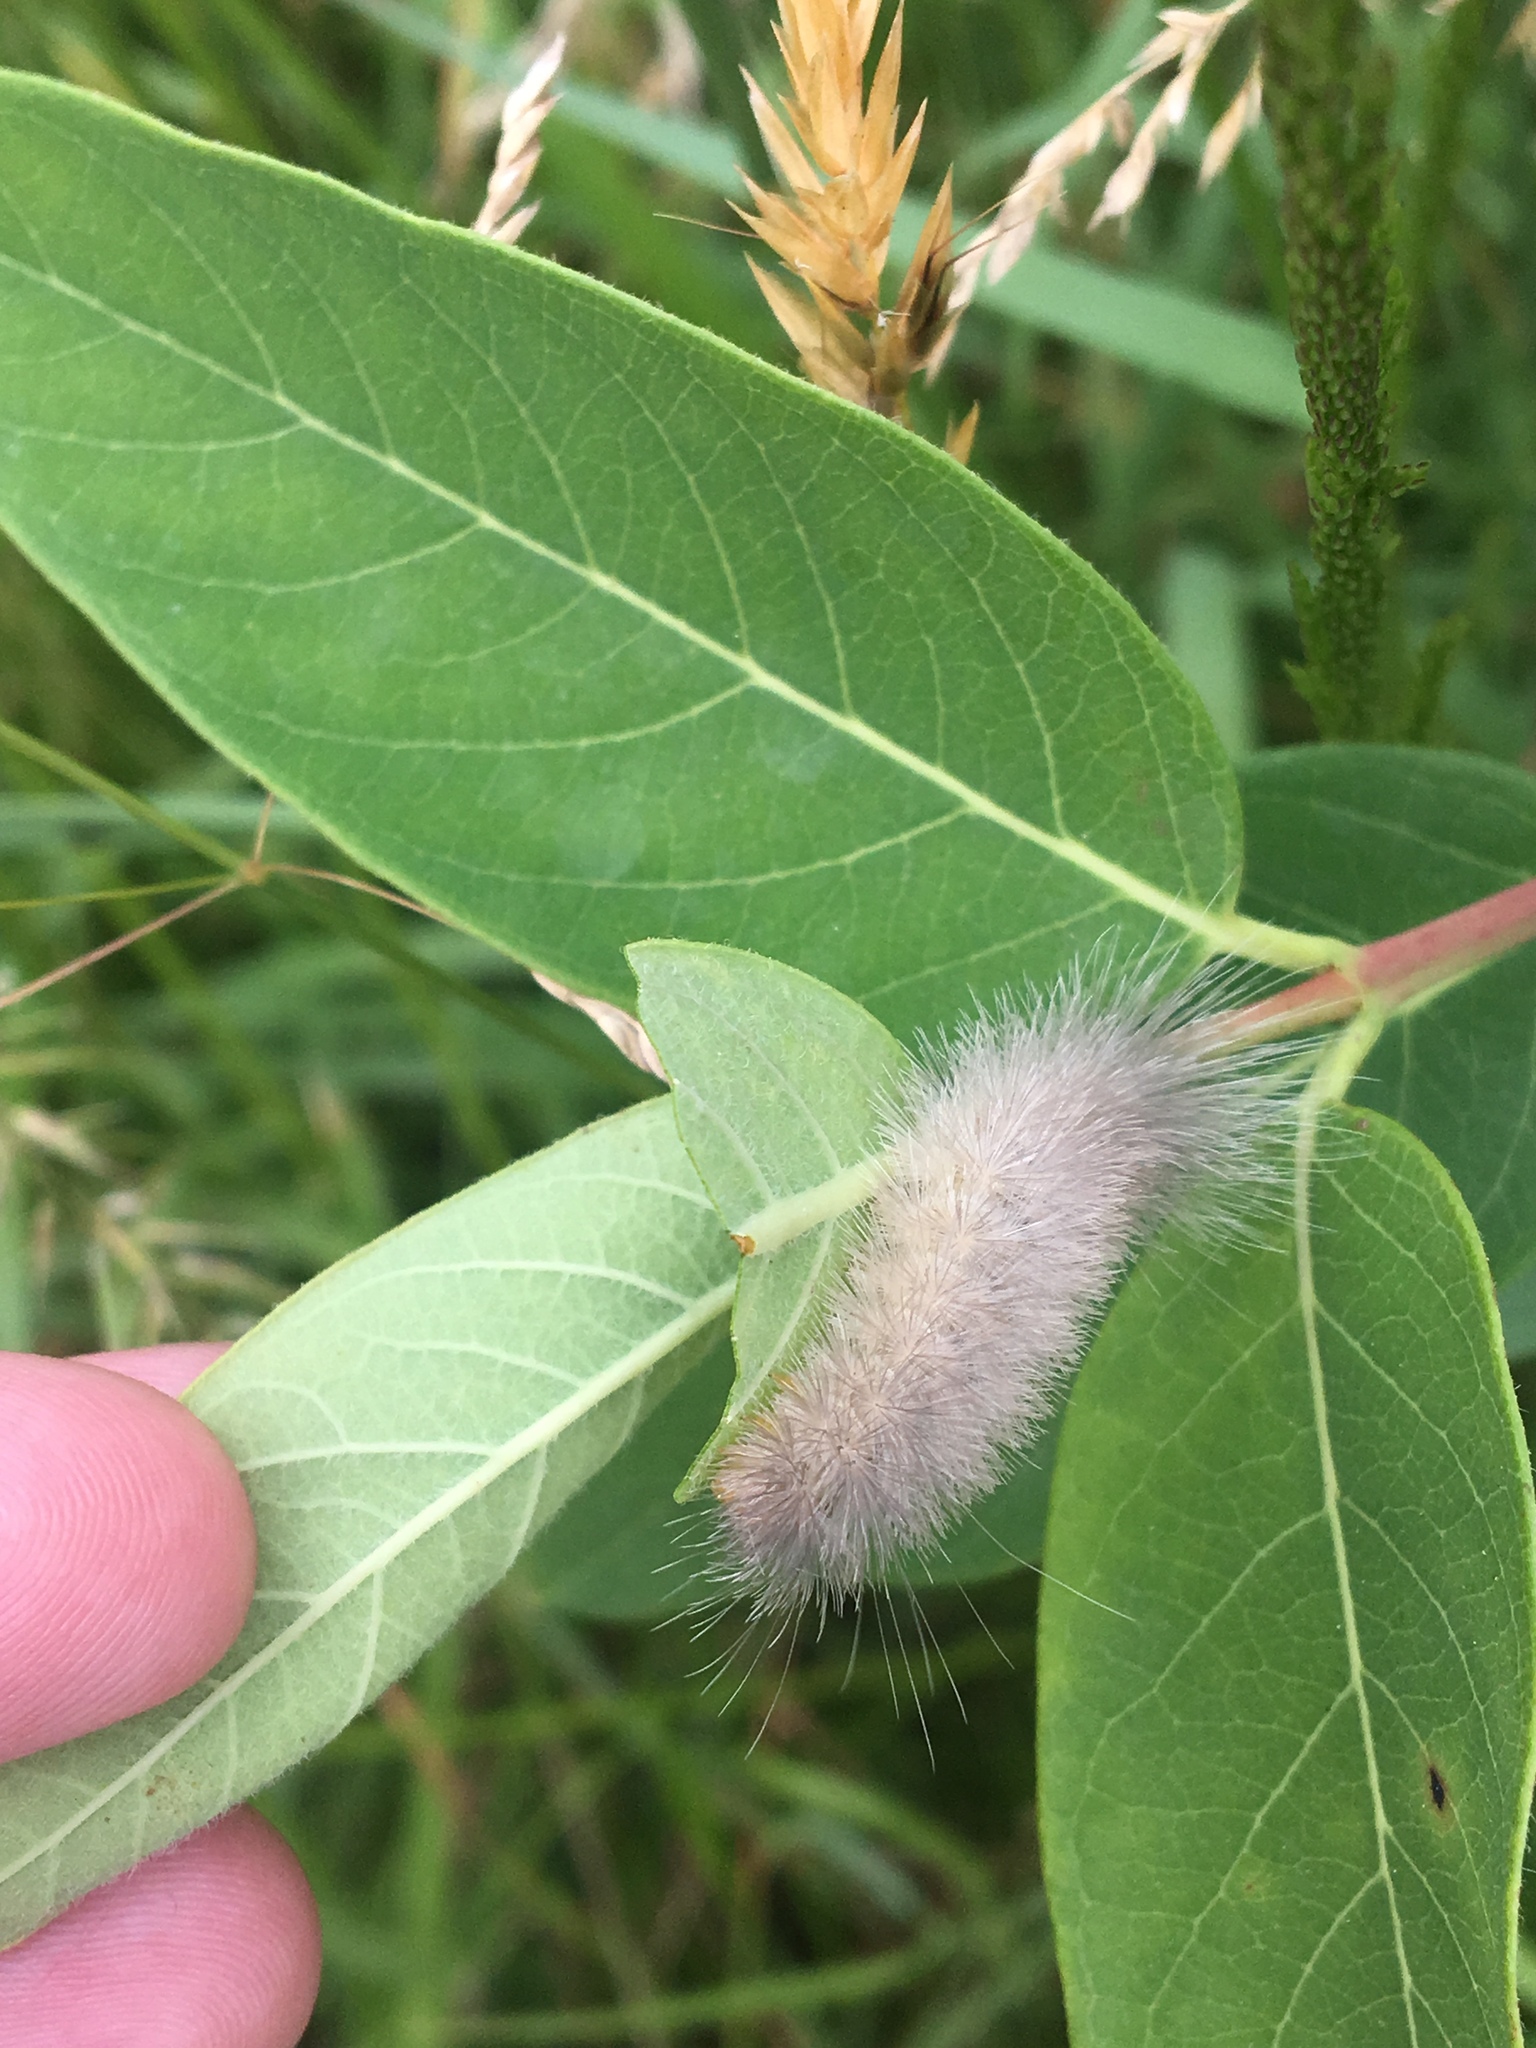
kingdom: Animalia
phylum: Arthropoda
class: Insecta
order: Lepidoptera
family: Erebidae
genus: Cycnia
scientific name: Cycnia tenera
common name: Delicate cycnia moth
